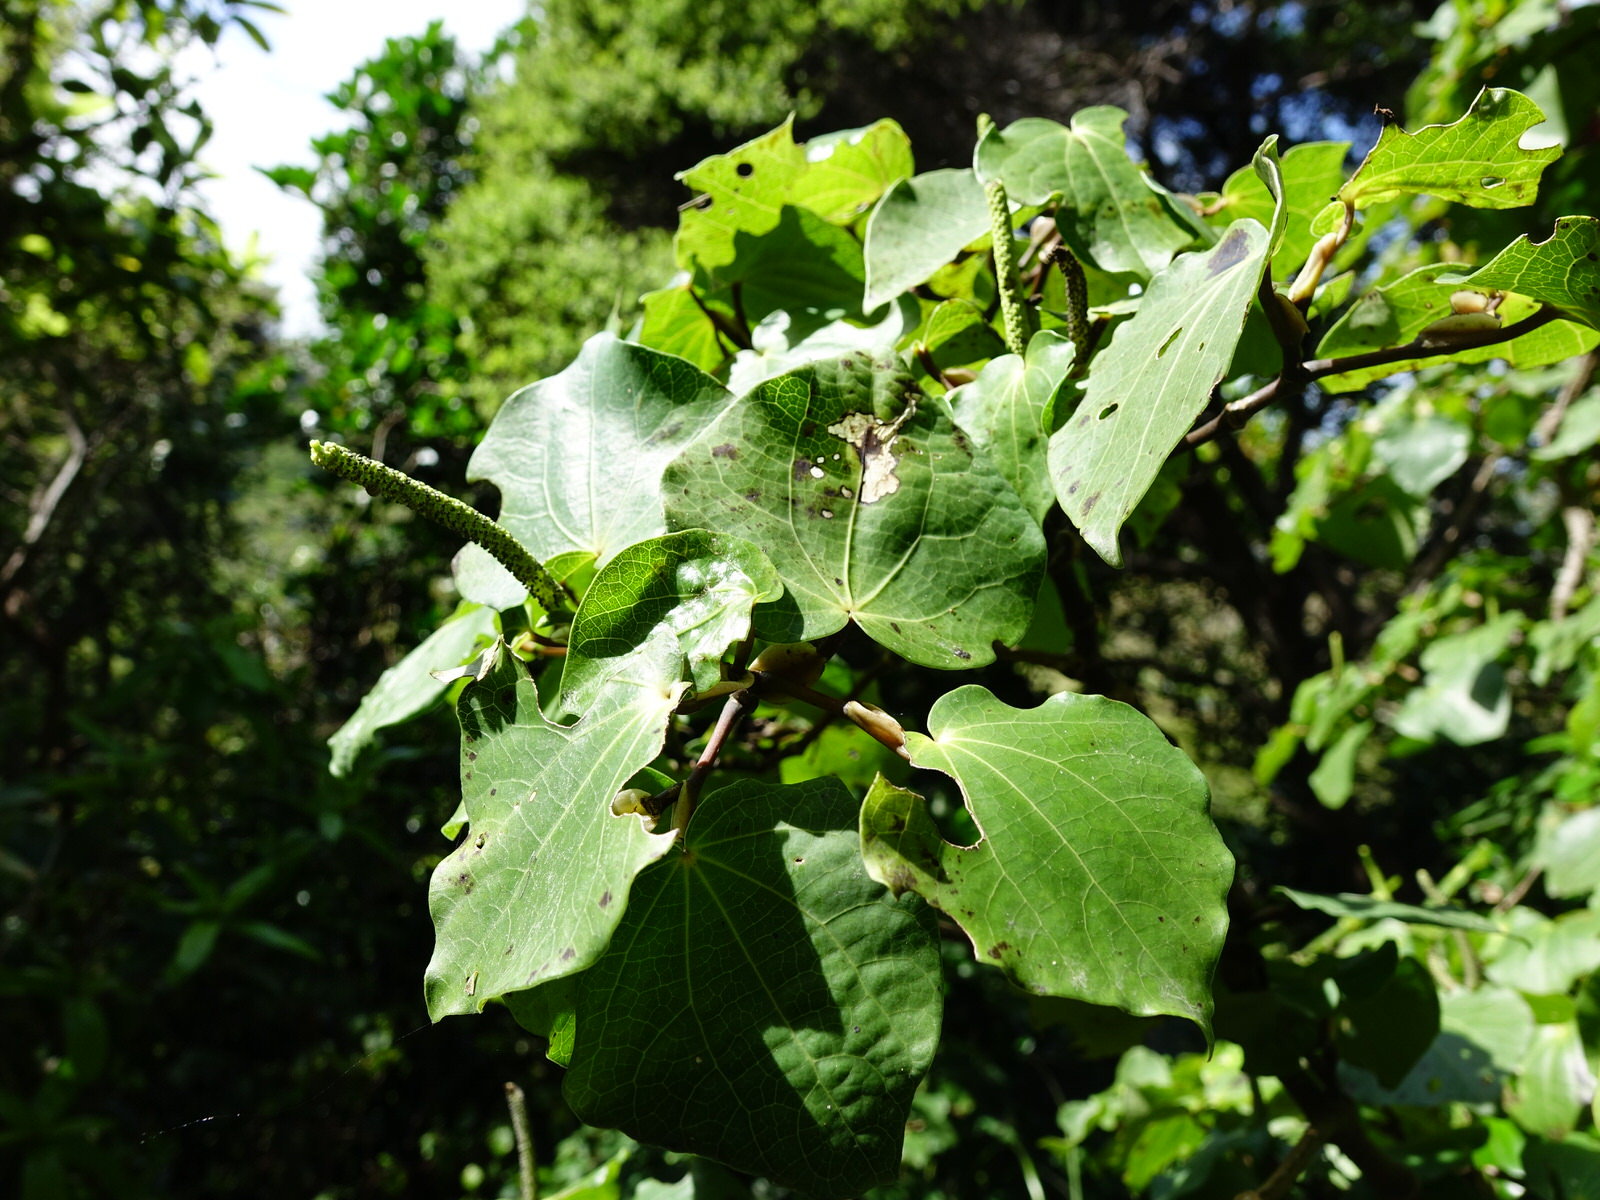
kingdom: Animalia
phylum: Arthropoda
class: Insecta
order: Lepidoptera
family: Geometridae
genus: Cleora
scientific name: Cleora scriptaria
